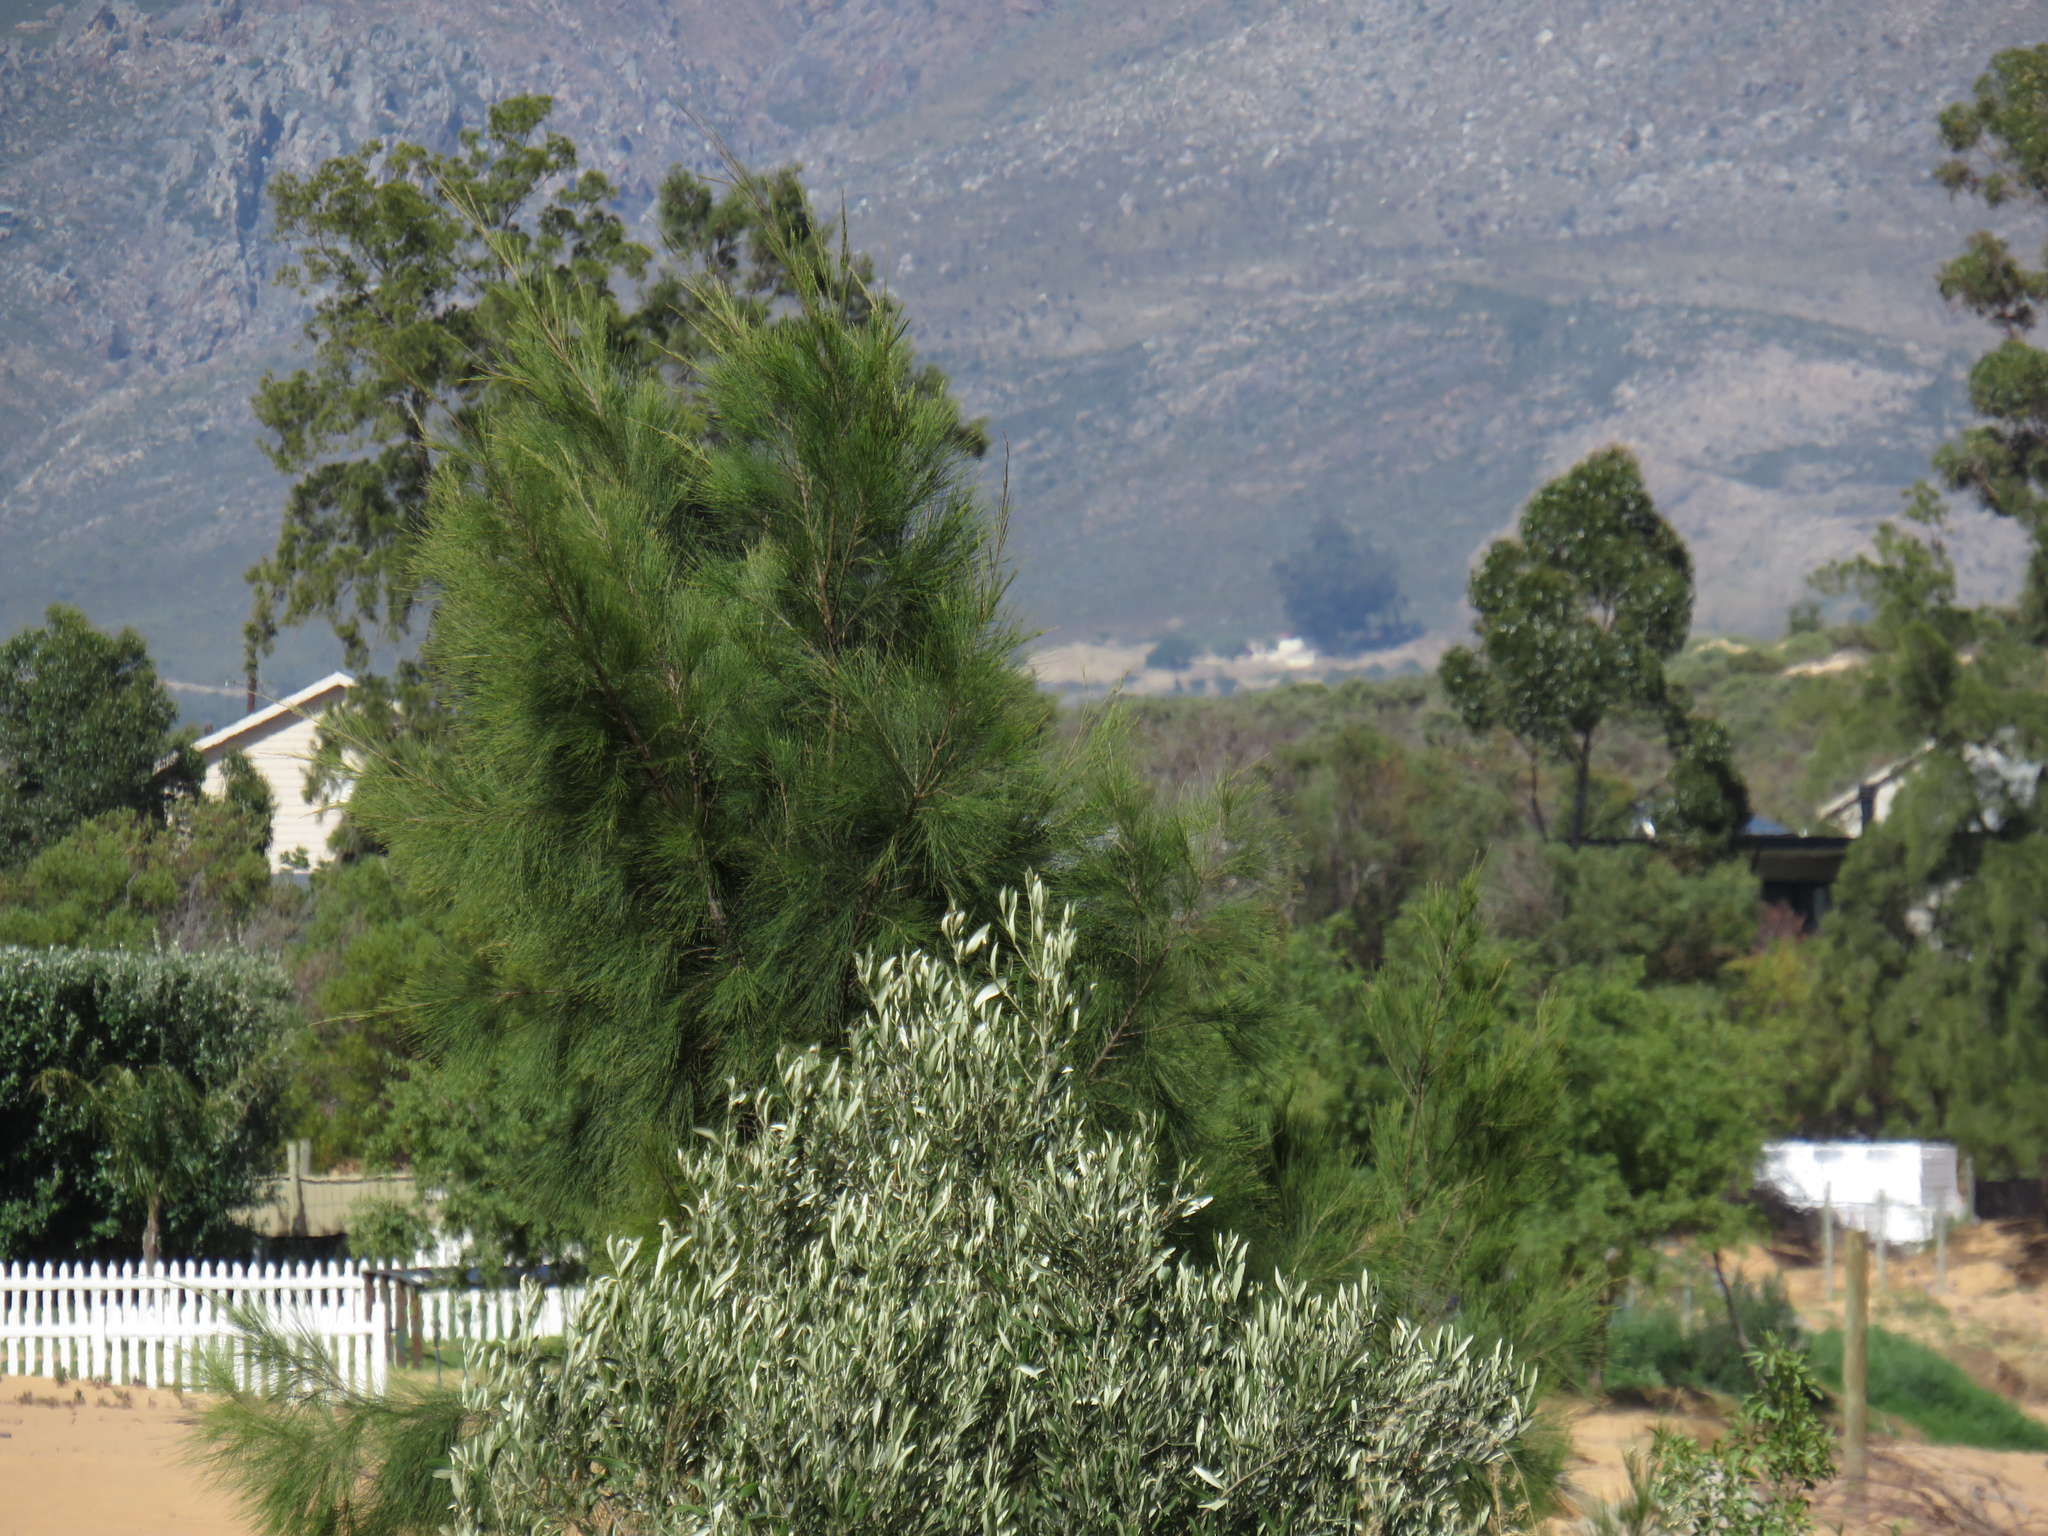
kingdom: Plantae
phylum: Tracheophyta
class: Magnoliopsida
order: Fagales
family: Casuarinaceae
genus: Casuarina
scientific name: Casuarina cunninghamiana
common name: River sheoak
